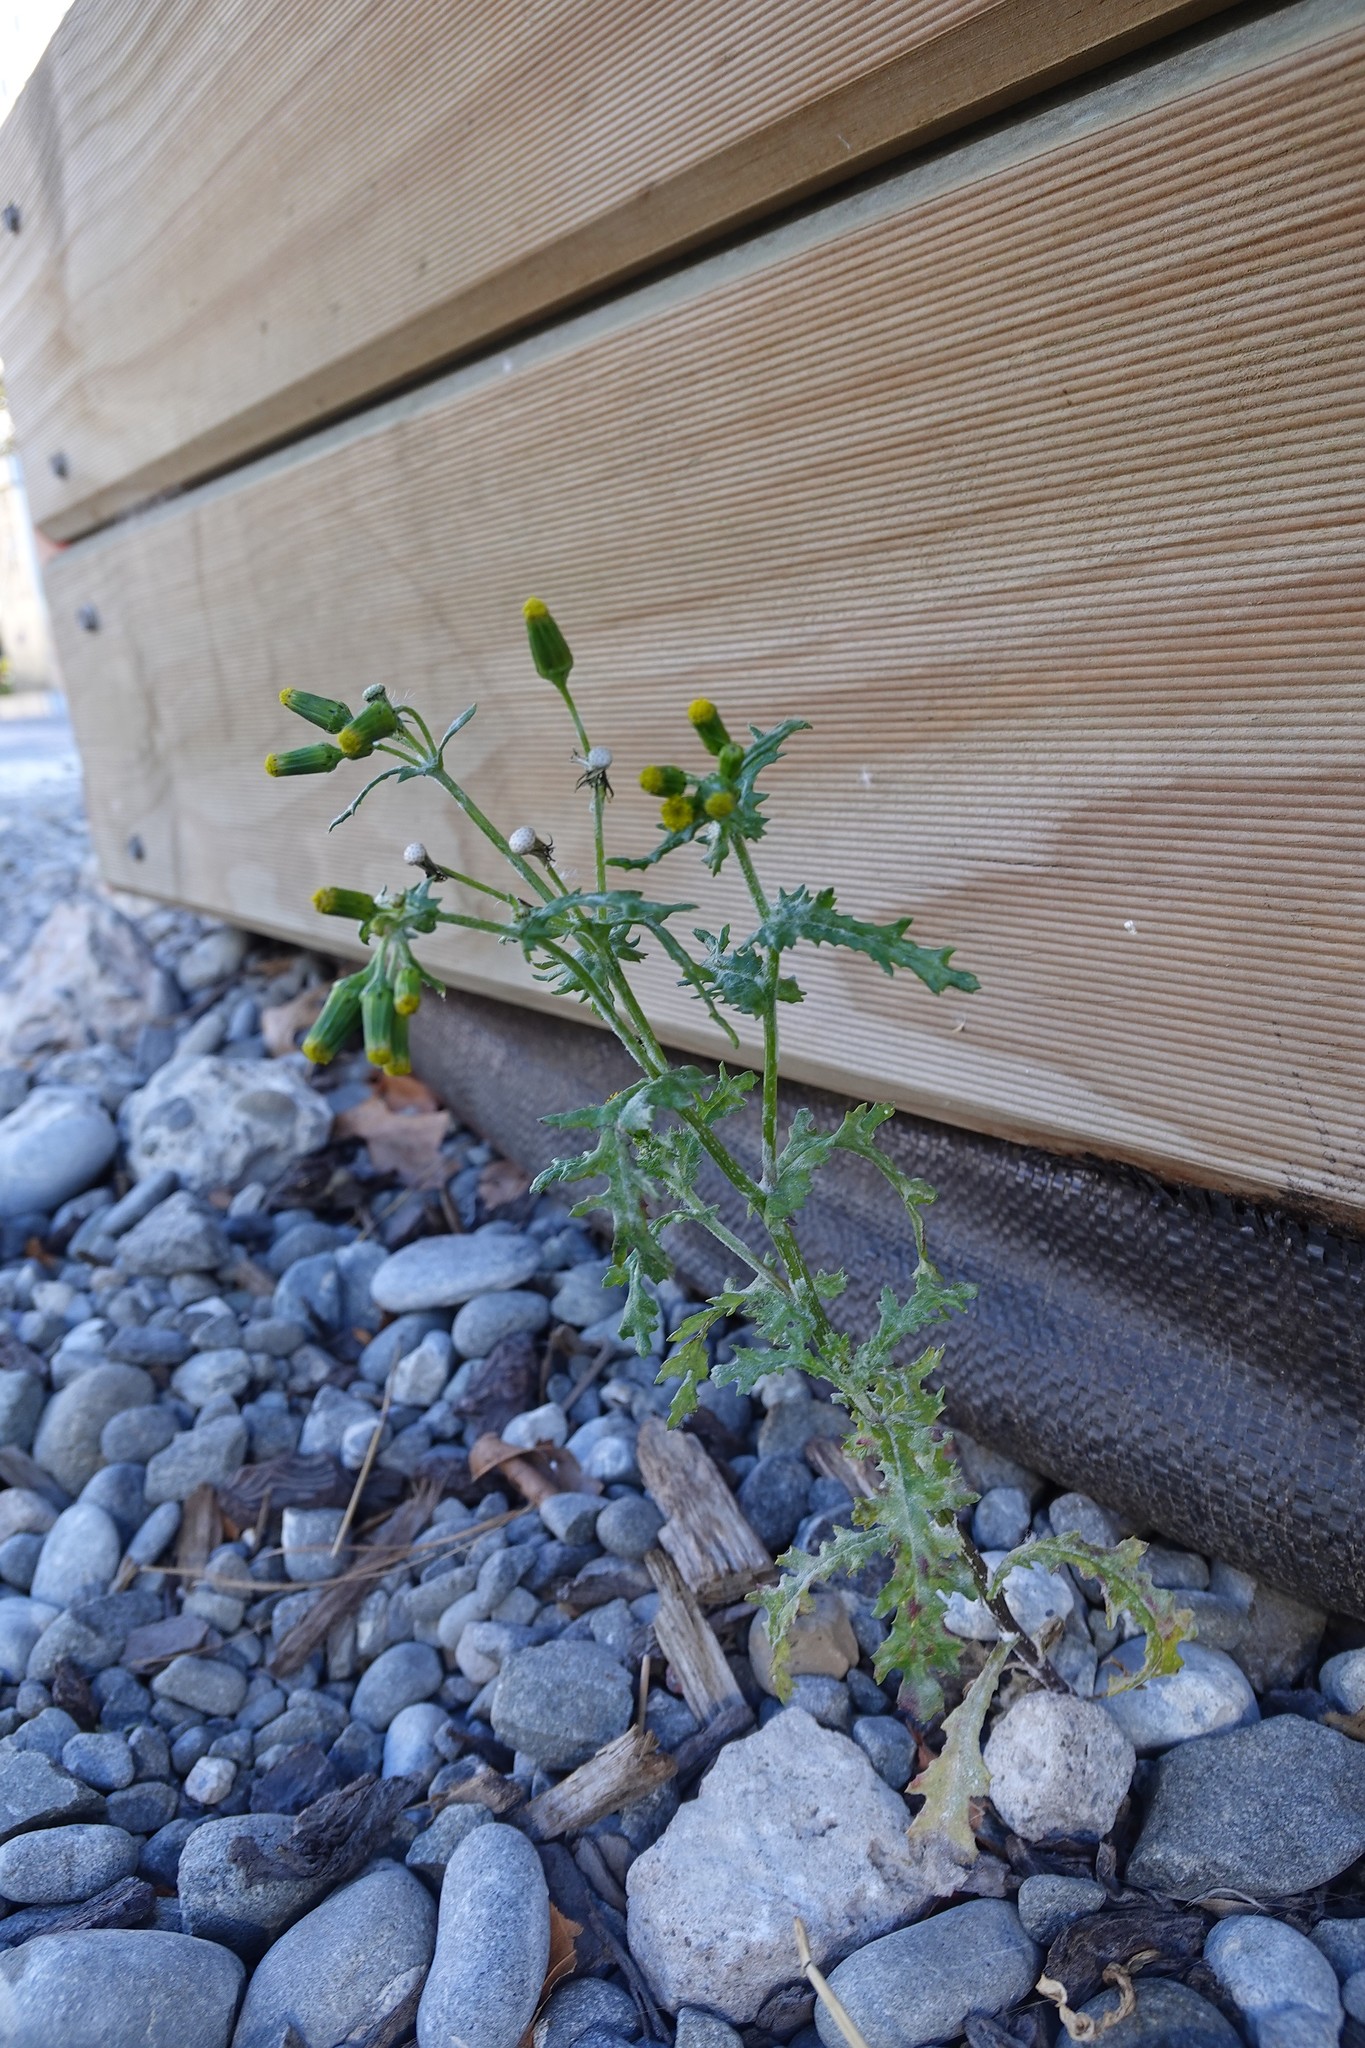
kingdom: Plantae
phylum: Tracheophyta
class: Magnoliopsida
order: Asterales
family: Asteraceae
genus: Senecio
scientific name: Senecio vulgaris
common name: Old-man-in-the-spring
